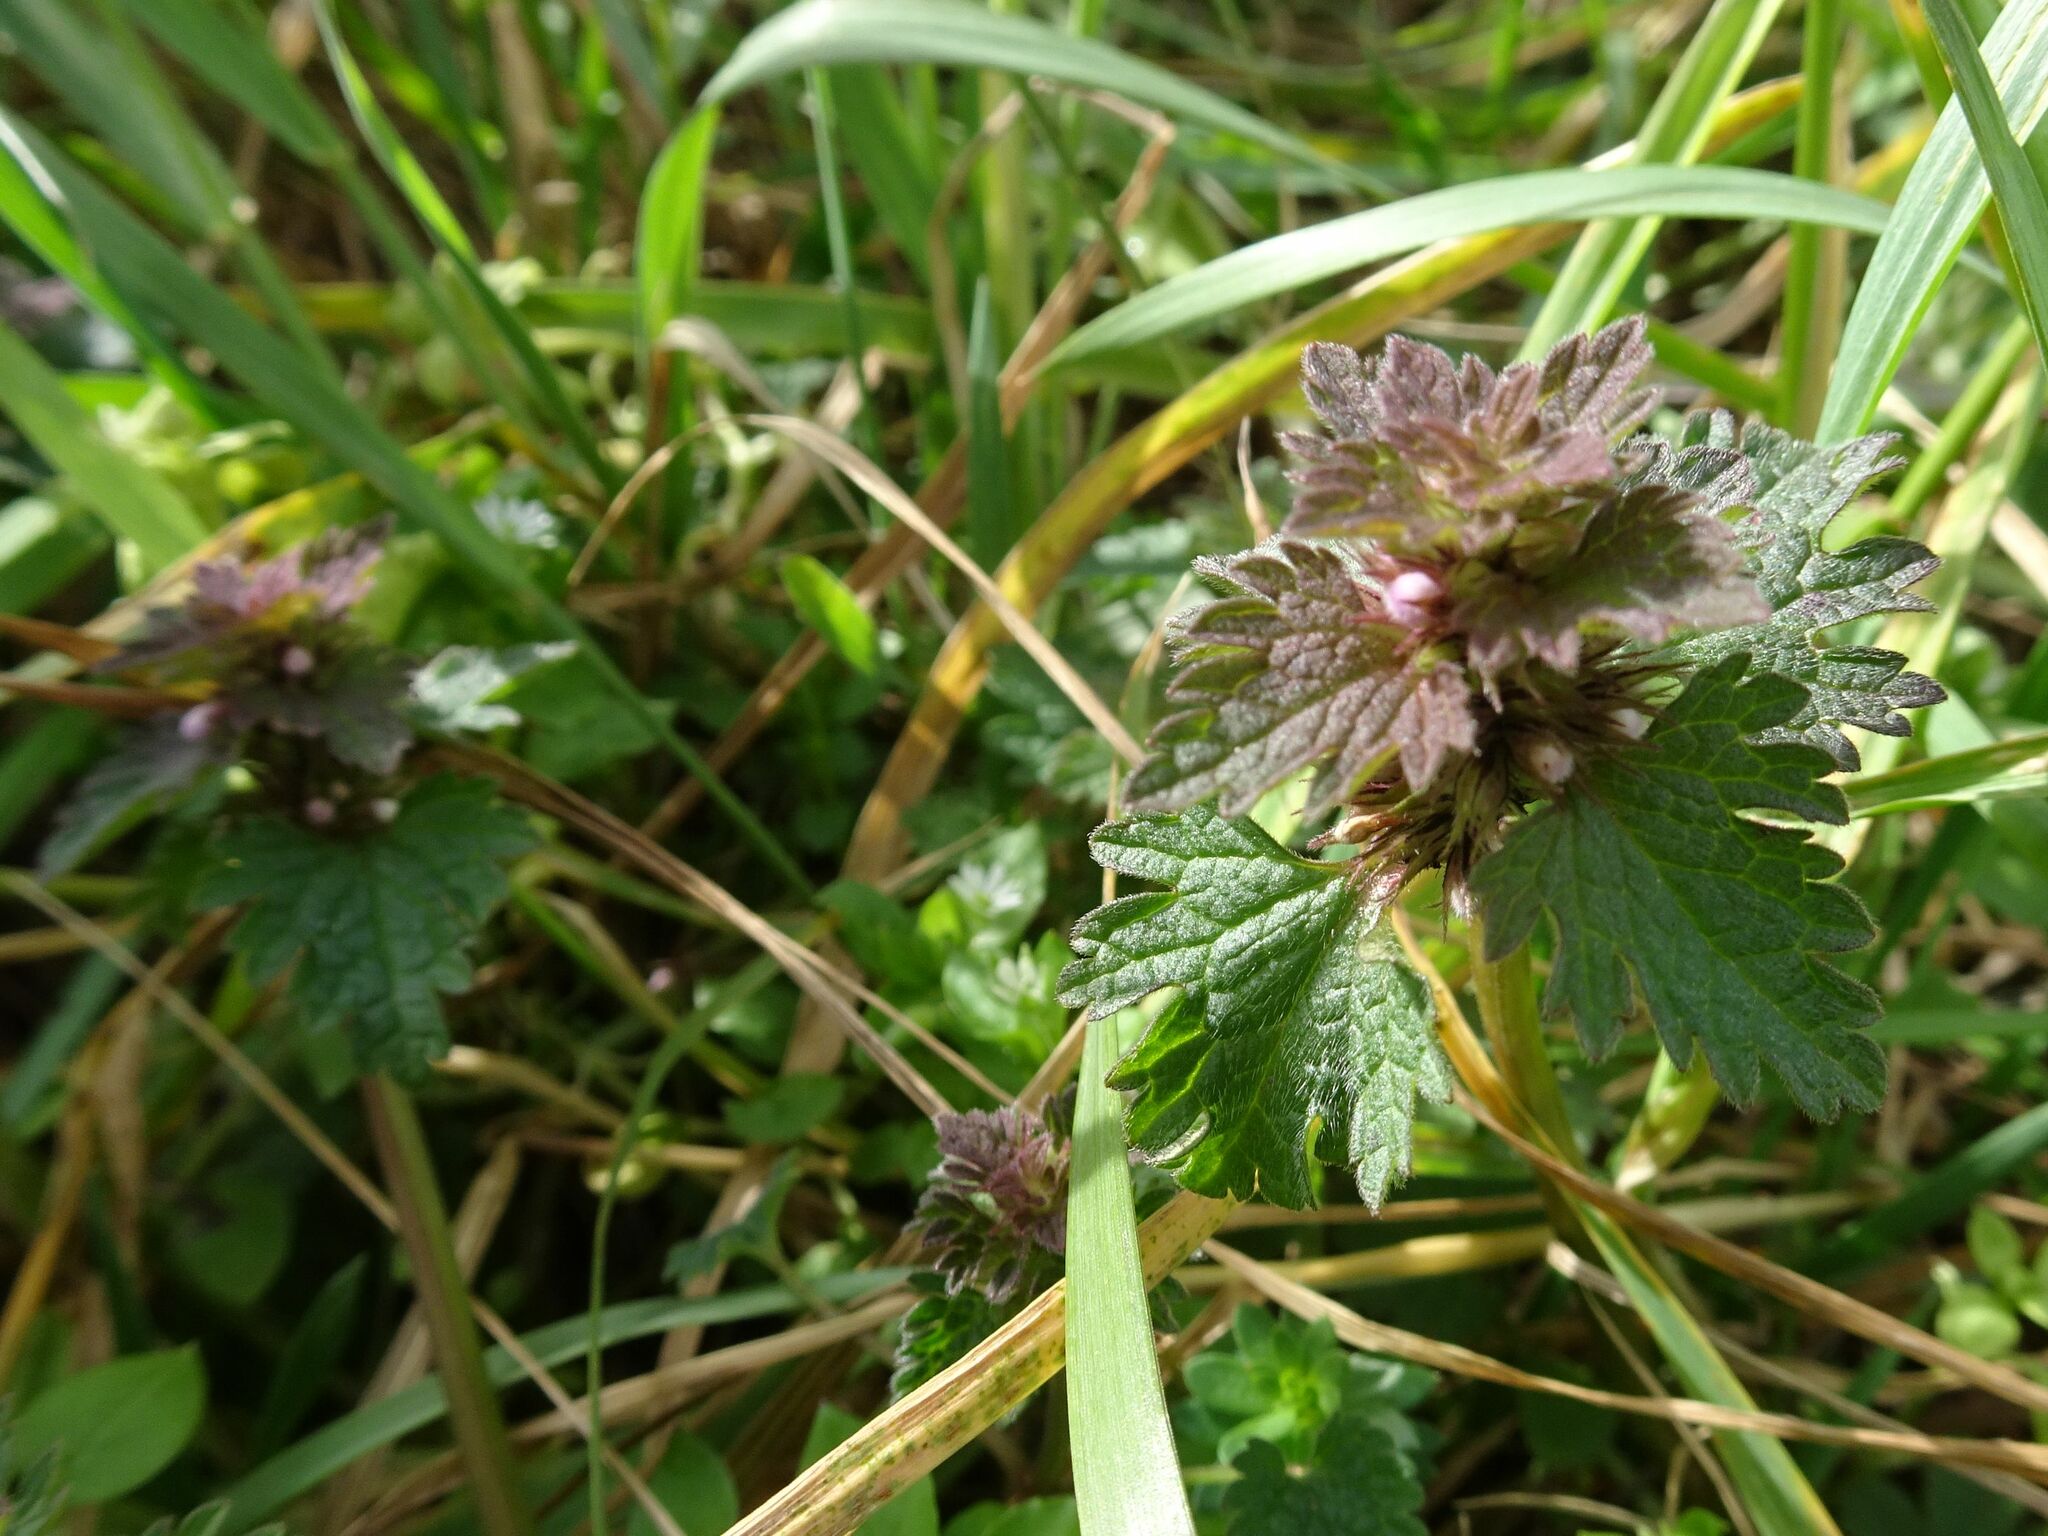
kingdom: Plantae
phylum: Tracheophyta
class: Magnoliopsida
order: Lamiales
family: Lamiaceae
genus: Lamium
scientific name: Lamium hybridum
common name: Cut-leaved dead-nettle
